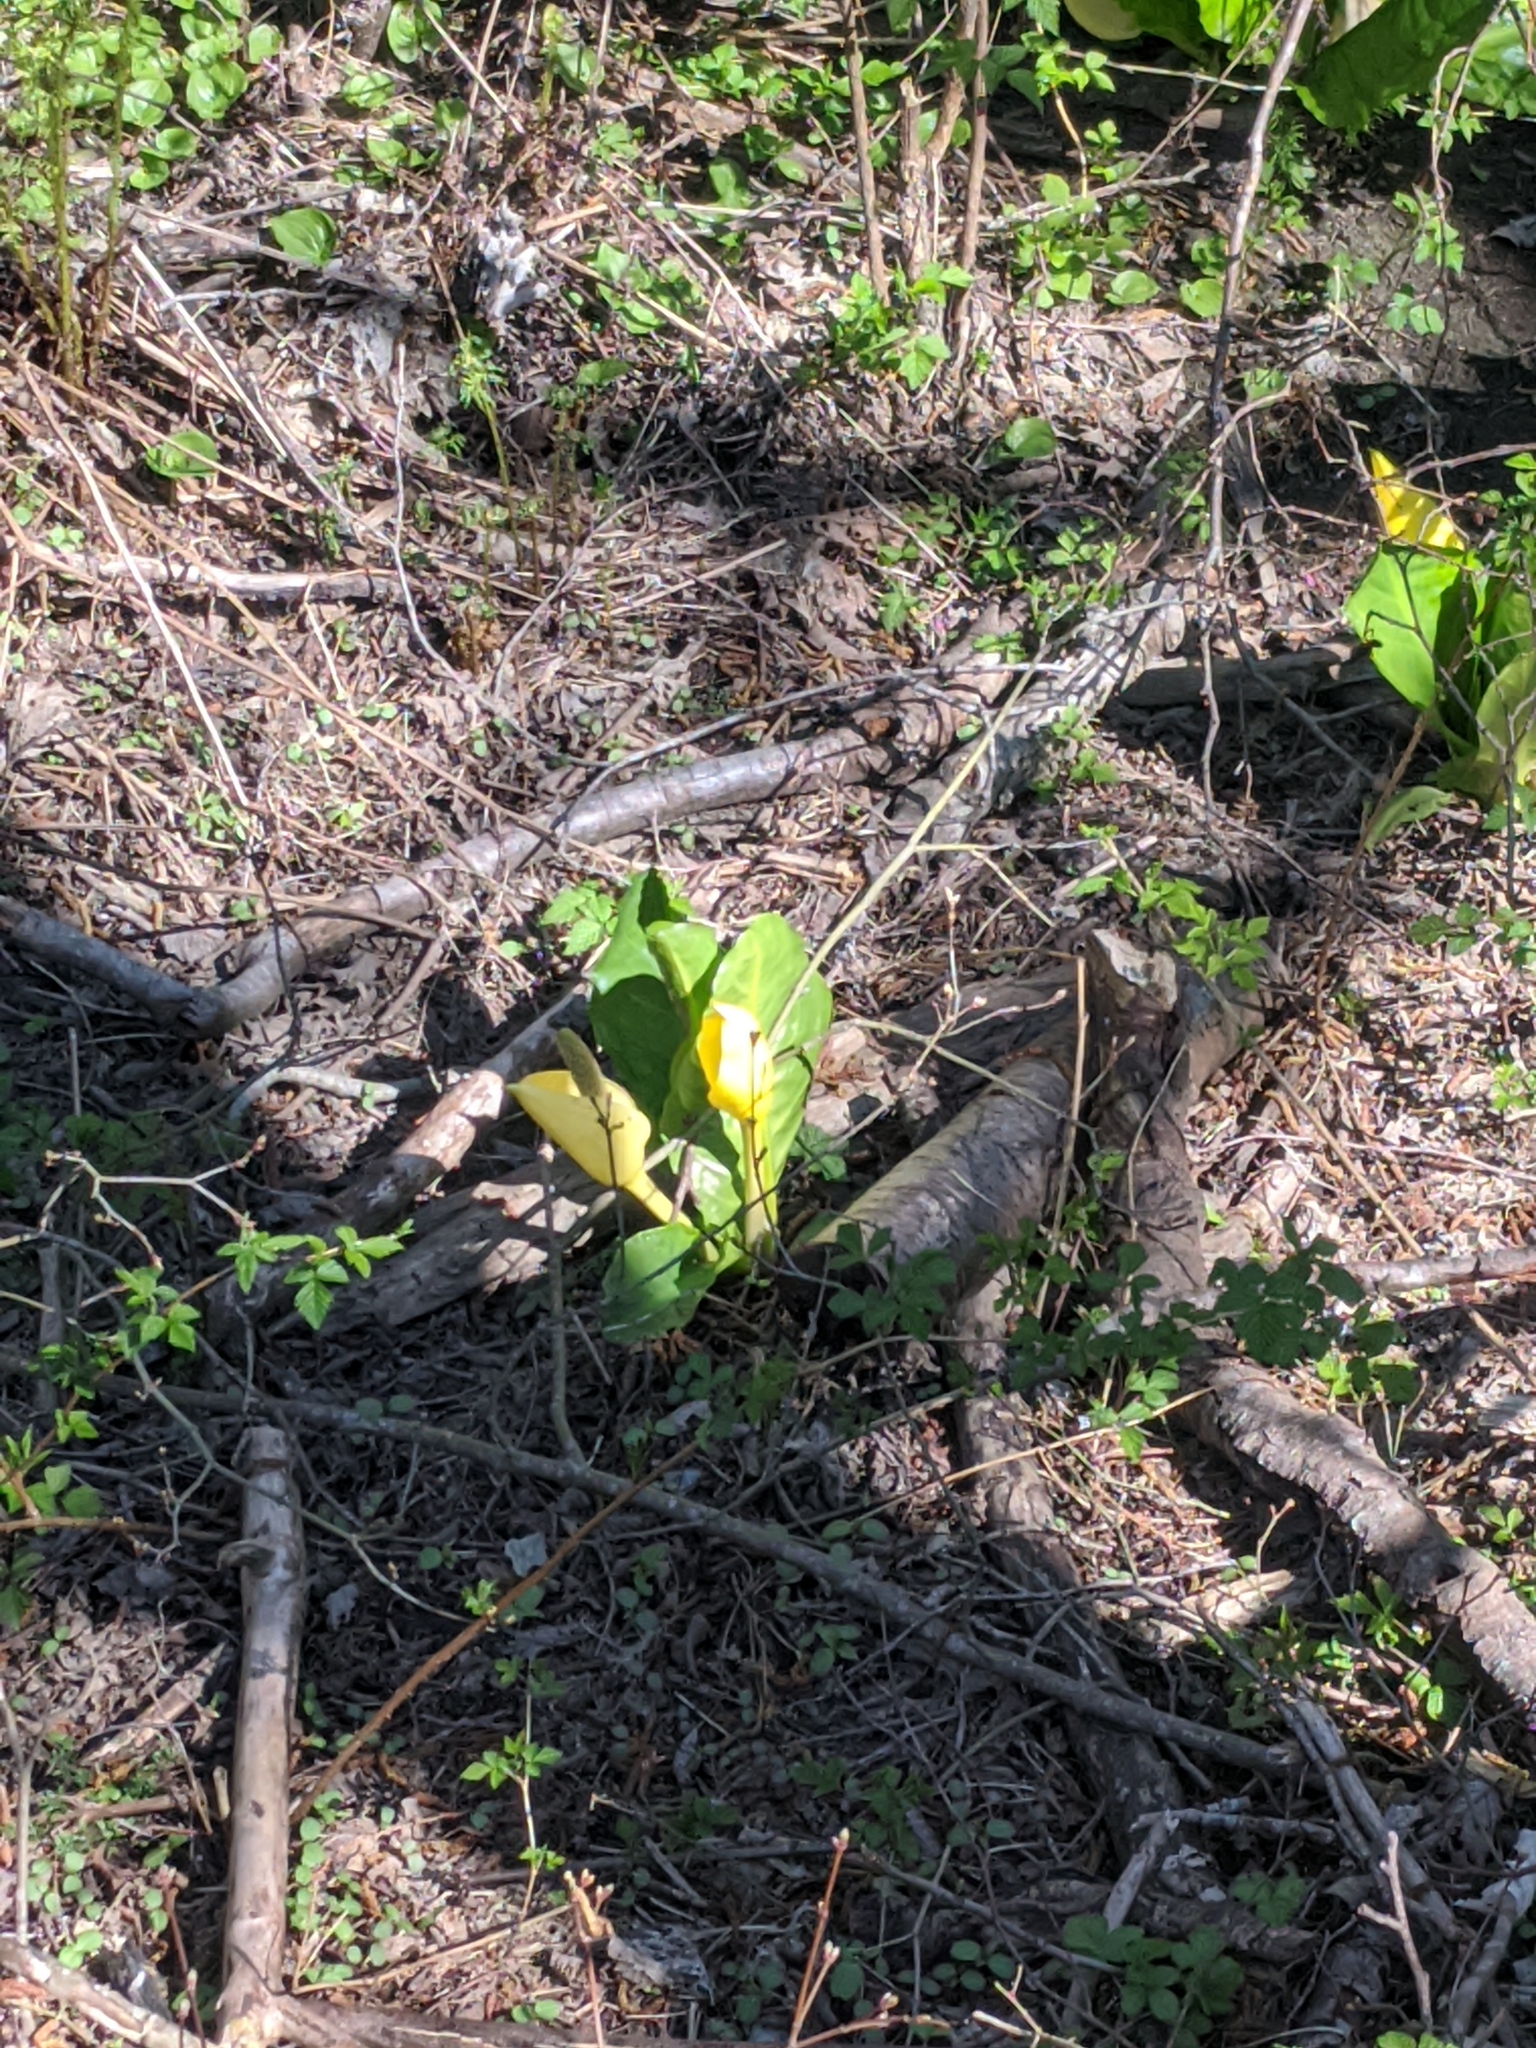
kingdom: Plantae
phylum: Tracheophyta
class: Liliopsida
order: Alismatales
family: Araceae
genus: Lysichiton
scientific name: Lysichiton americanus
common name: American skunk cabbage
